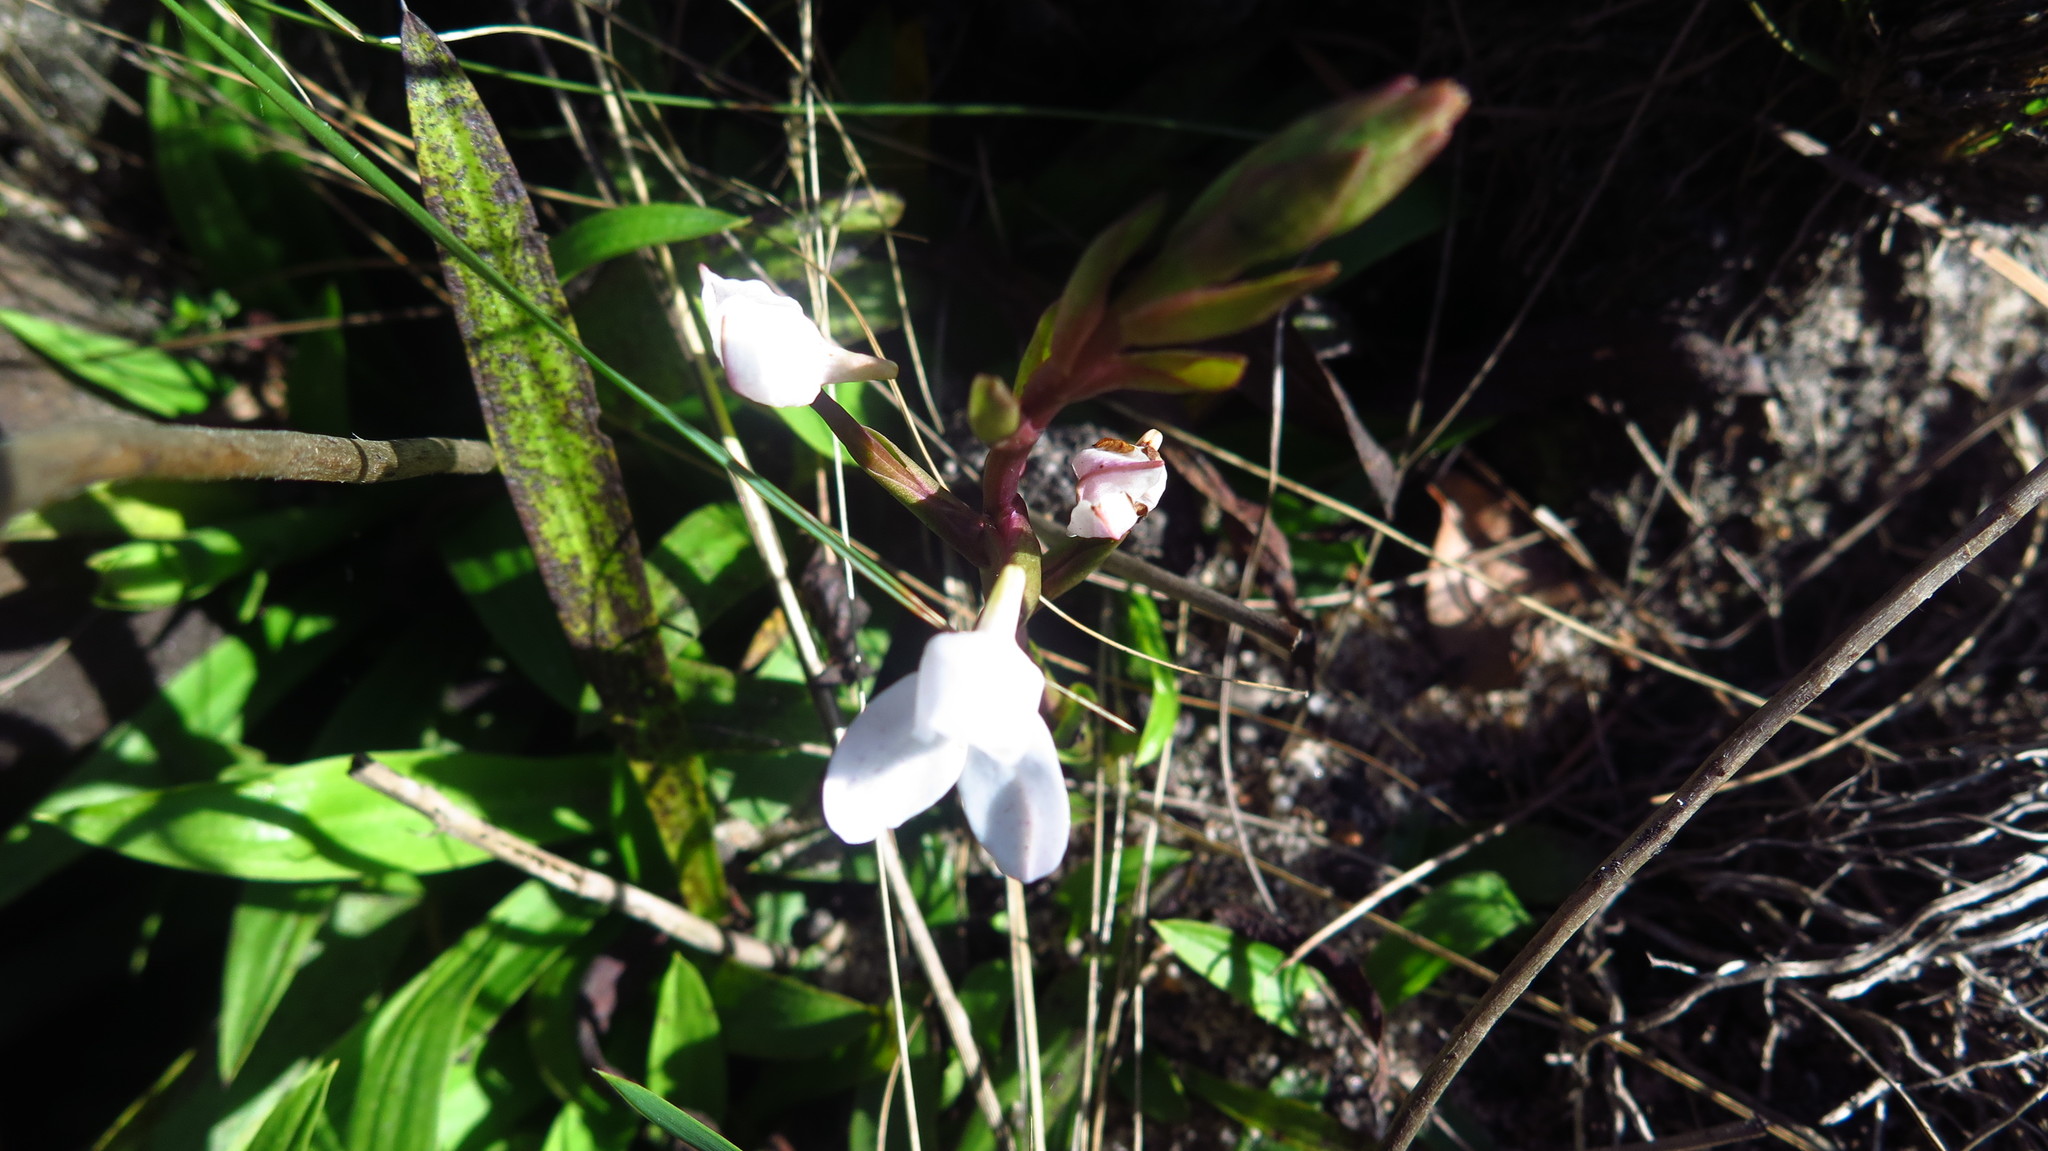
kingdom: Plantae
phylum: Tracheophyta
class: Liliopsida
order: Asparagales
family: Orchidaceae
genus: Disa
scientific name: Disa tripetaloides
